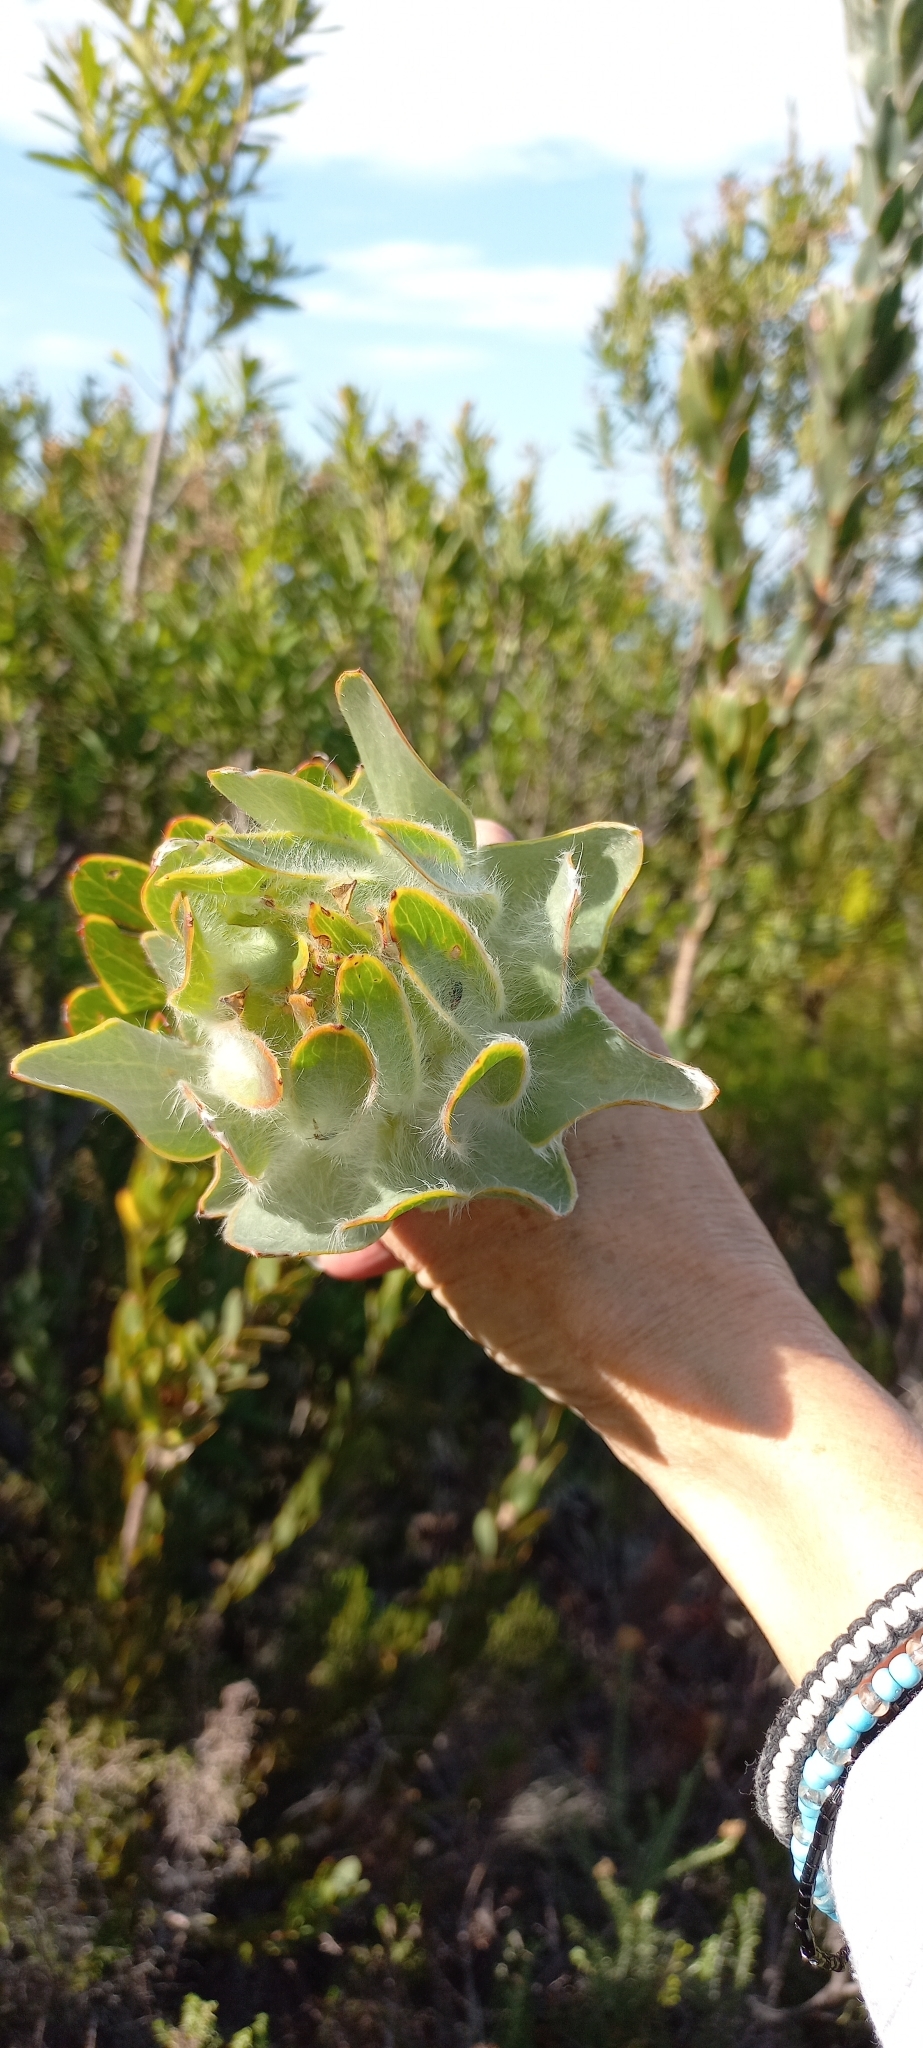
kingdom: Plantae
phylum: Tracheophyta
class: Magnoliopsida
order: Proteales
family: Proteaceae
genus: Leucadendron
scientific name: Leucadendron nervosum
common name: Silky-ruff conebush
